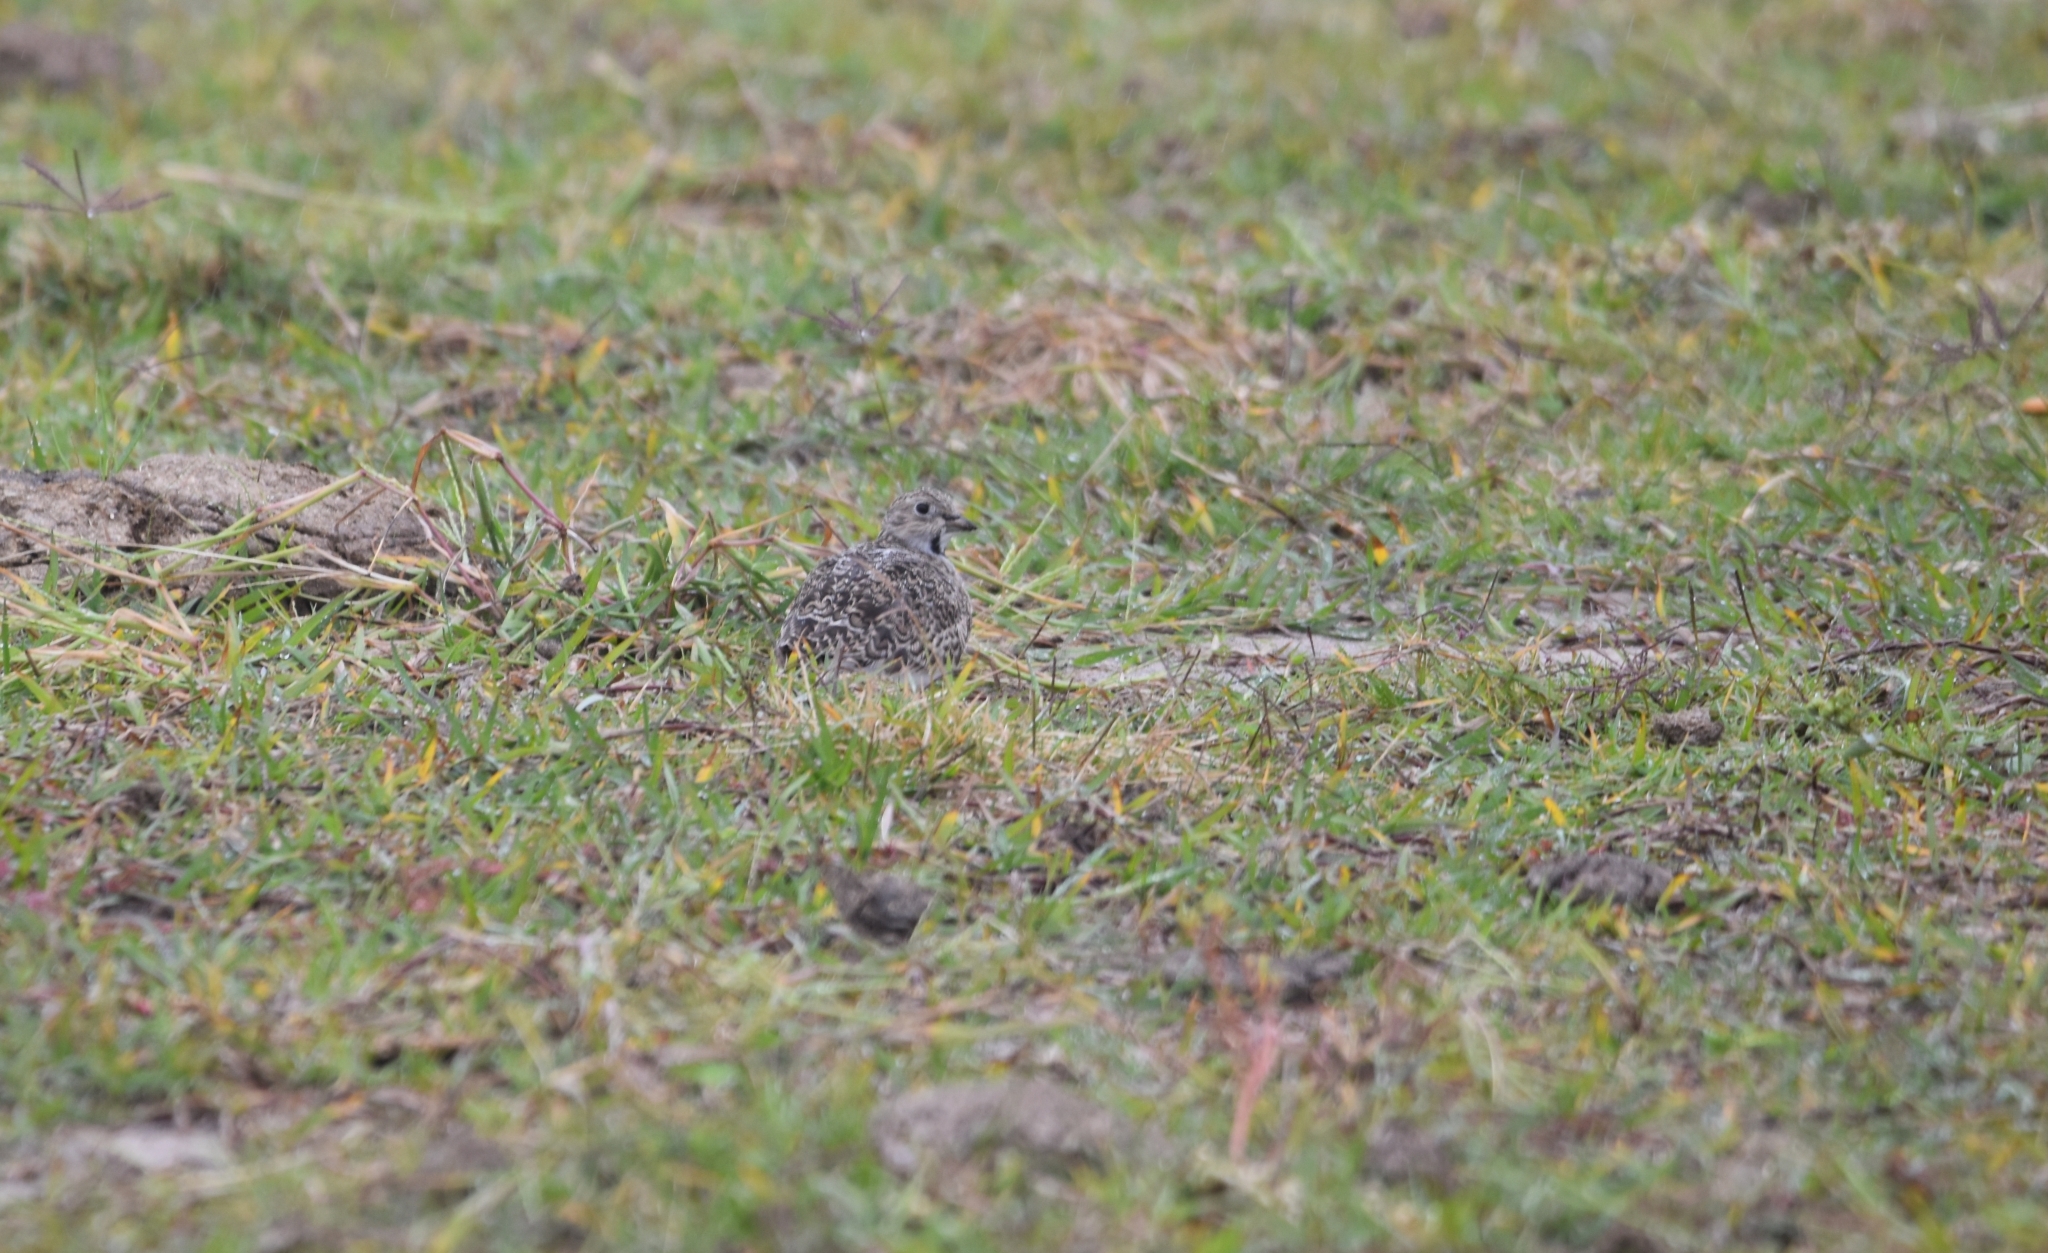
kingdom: Animalia
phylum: Chordata
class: Aves
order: Charadriiformes
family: Thinocoridae
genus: Thinocorus
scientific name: Thinocorus rumicivorus
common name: Least seedsnipe
